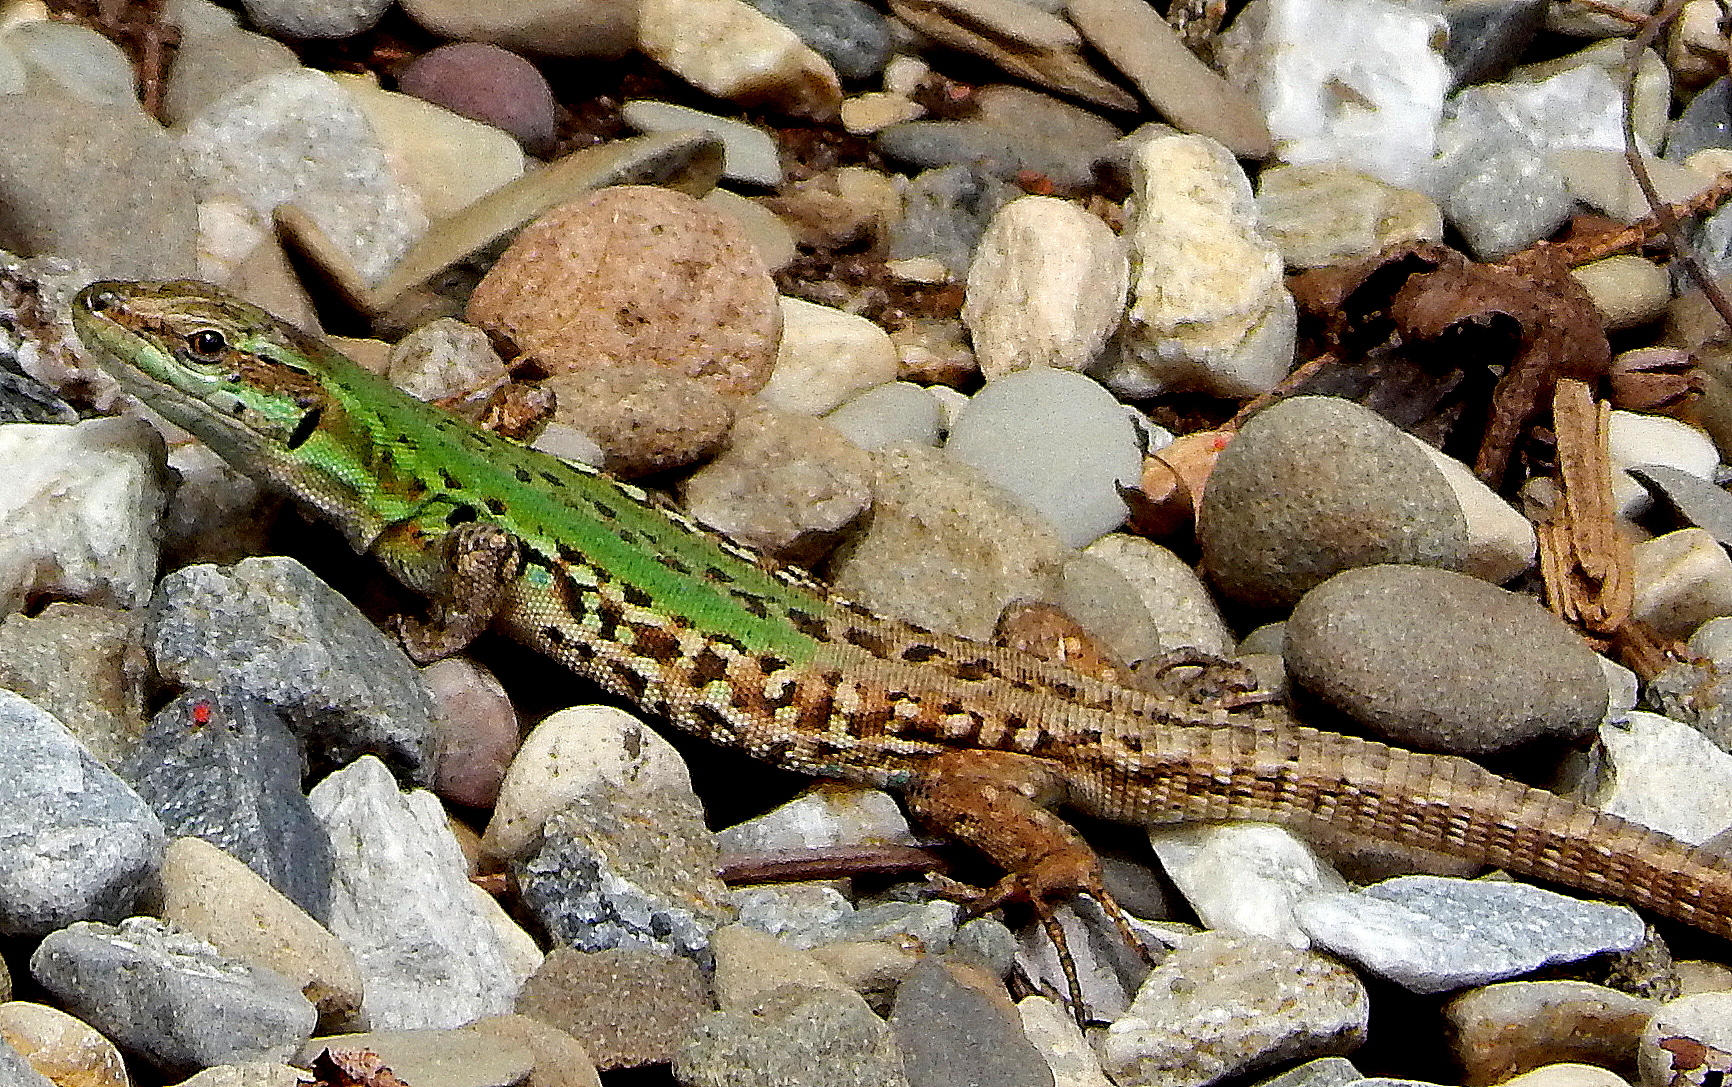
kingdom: Animalia
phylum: Chordata
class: Squamata
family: Lacertidae
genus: Podarcis
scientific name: Podarcis siculus
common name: Italian wall lizard
